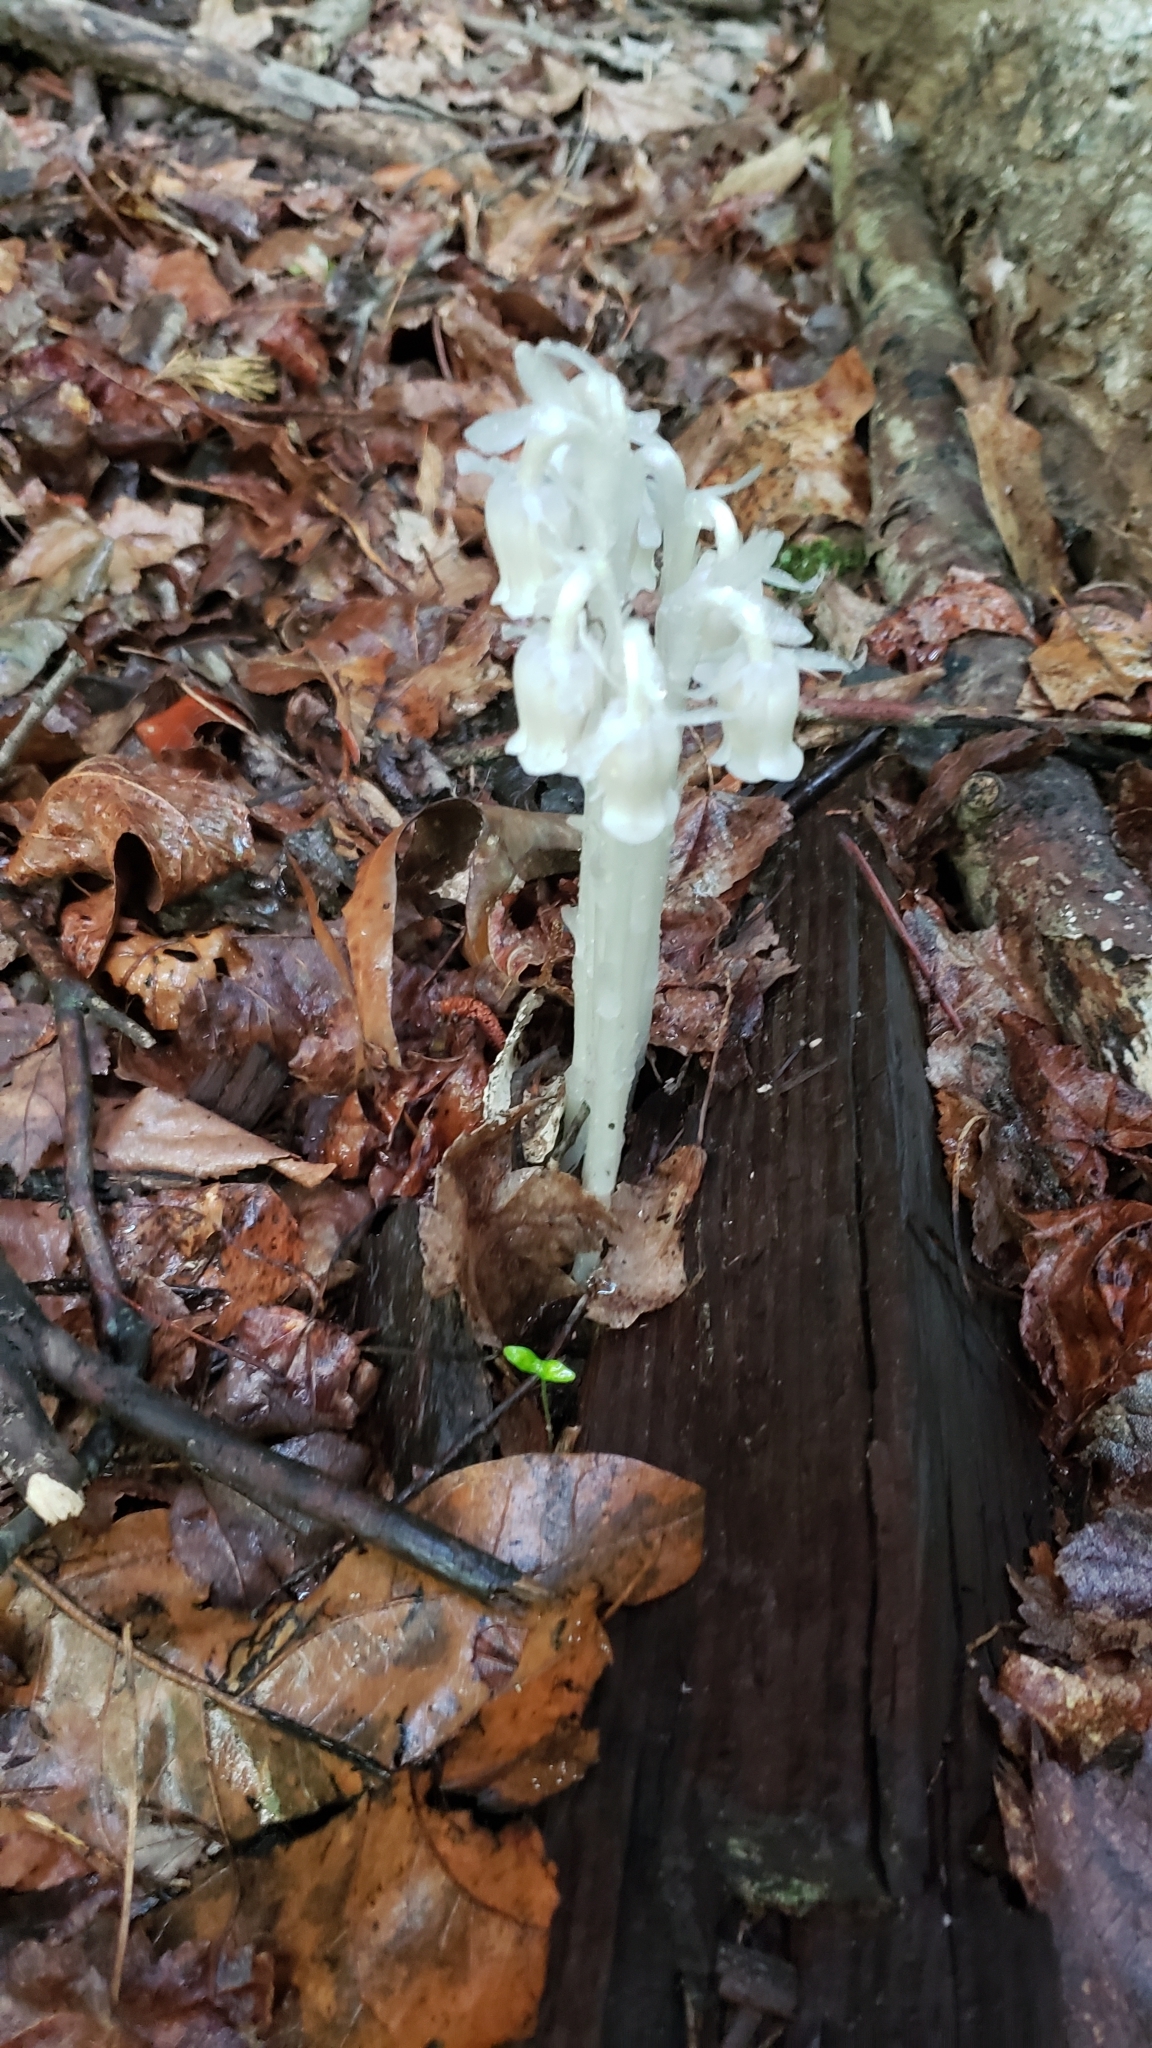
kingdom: Plantae
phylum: Tracheophyta
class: Magnoliopsida
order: Ericales
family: Ericaceae
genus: Monotropa
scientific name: Monotropa uniflora
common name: Convulsion root
